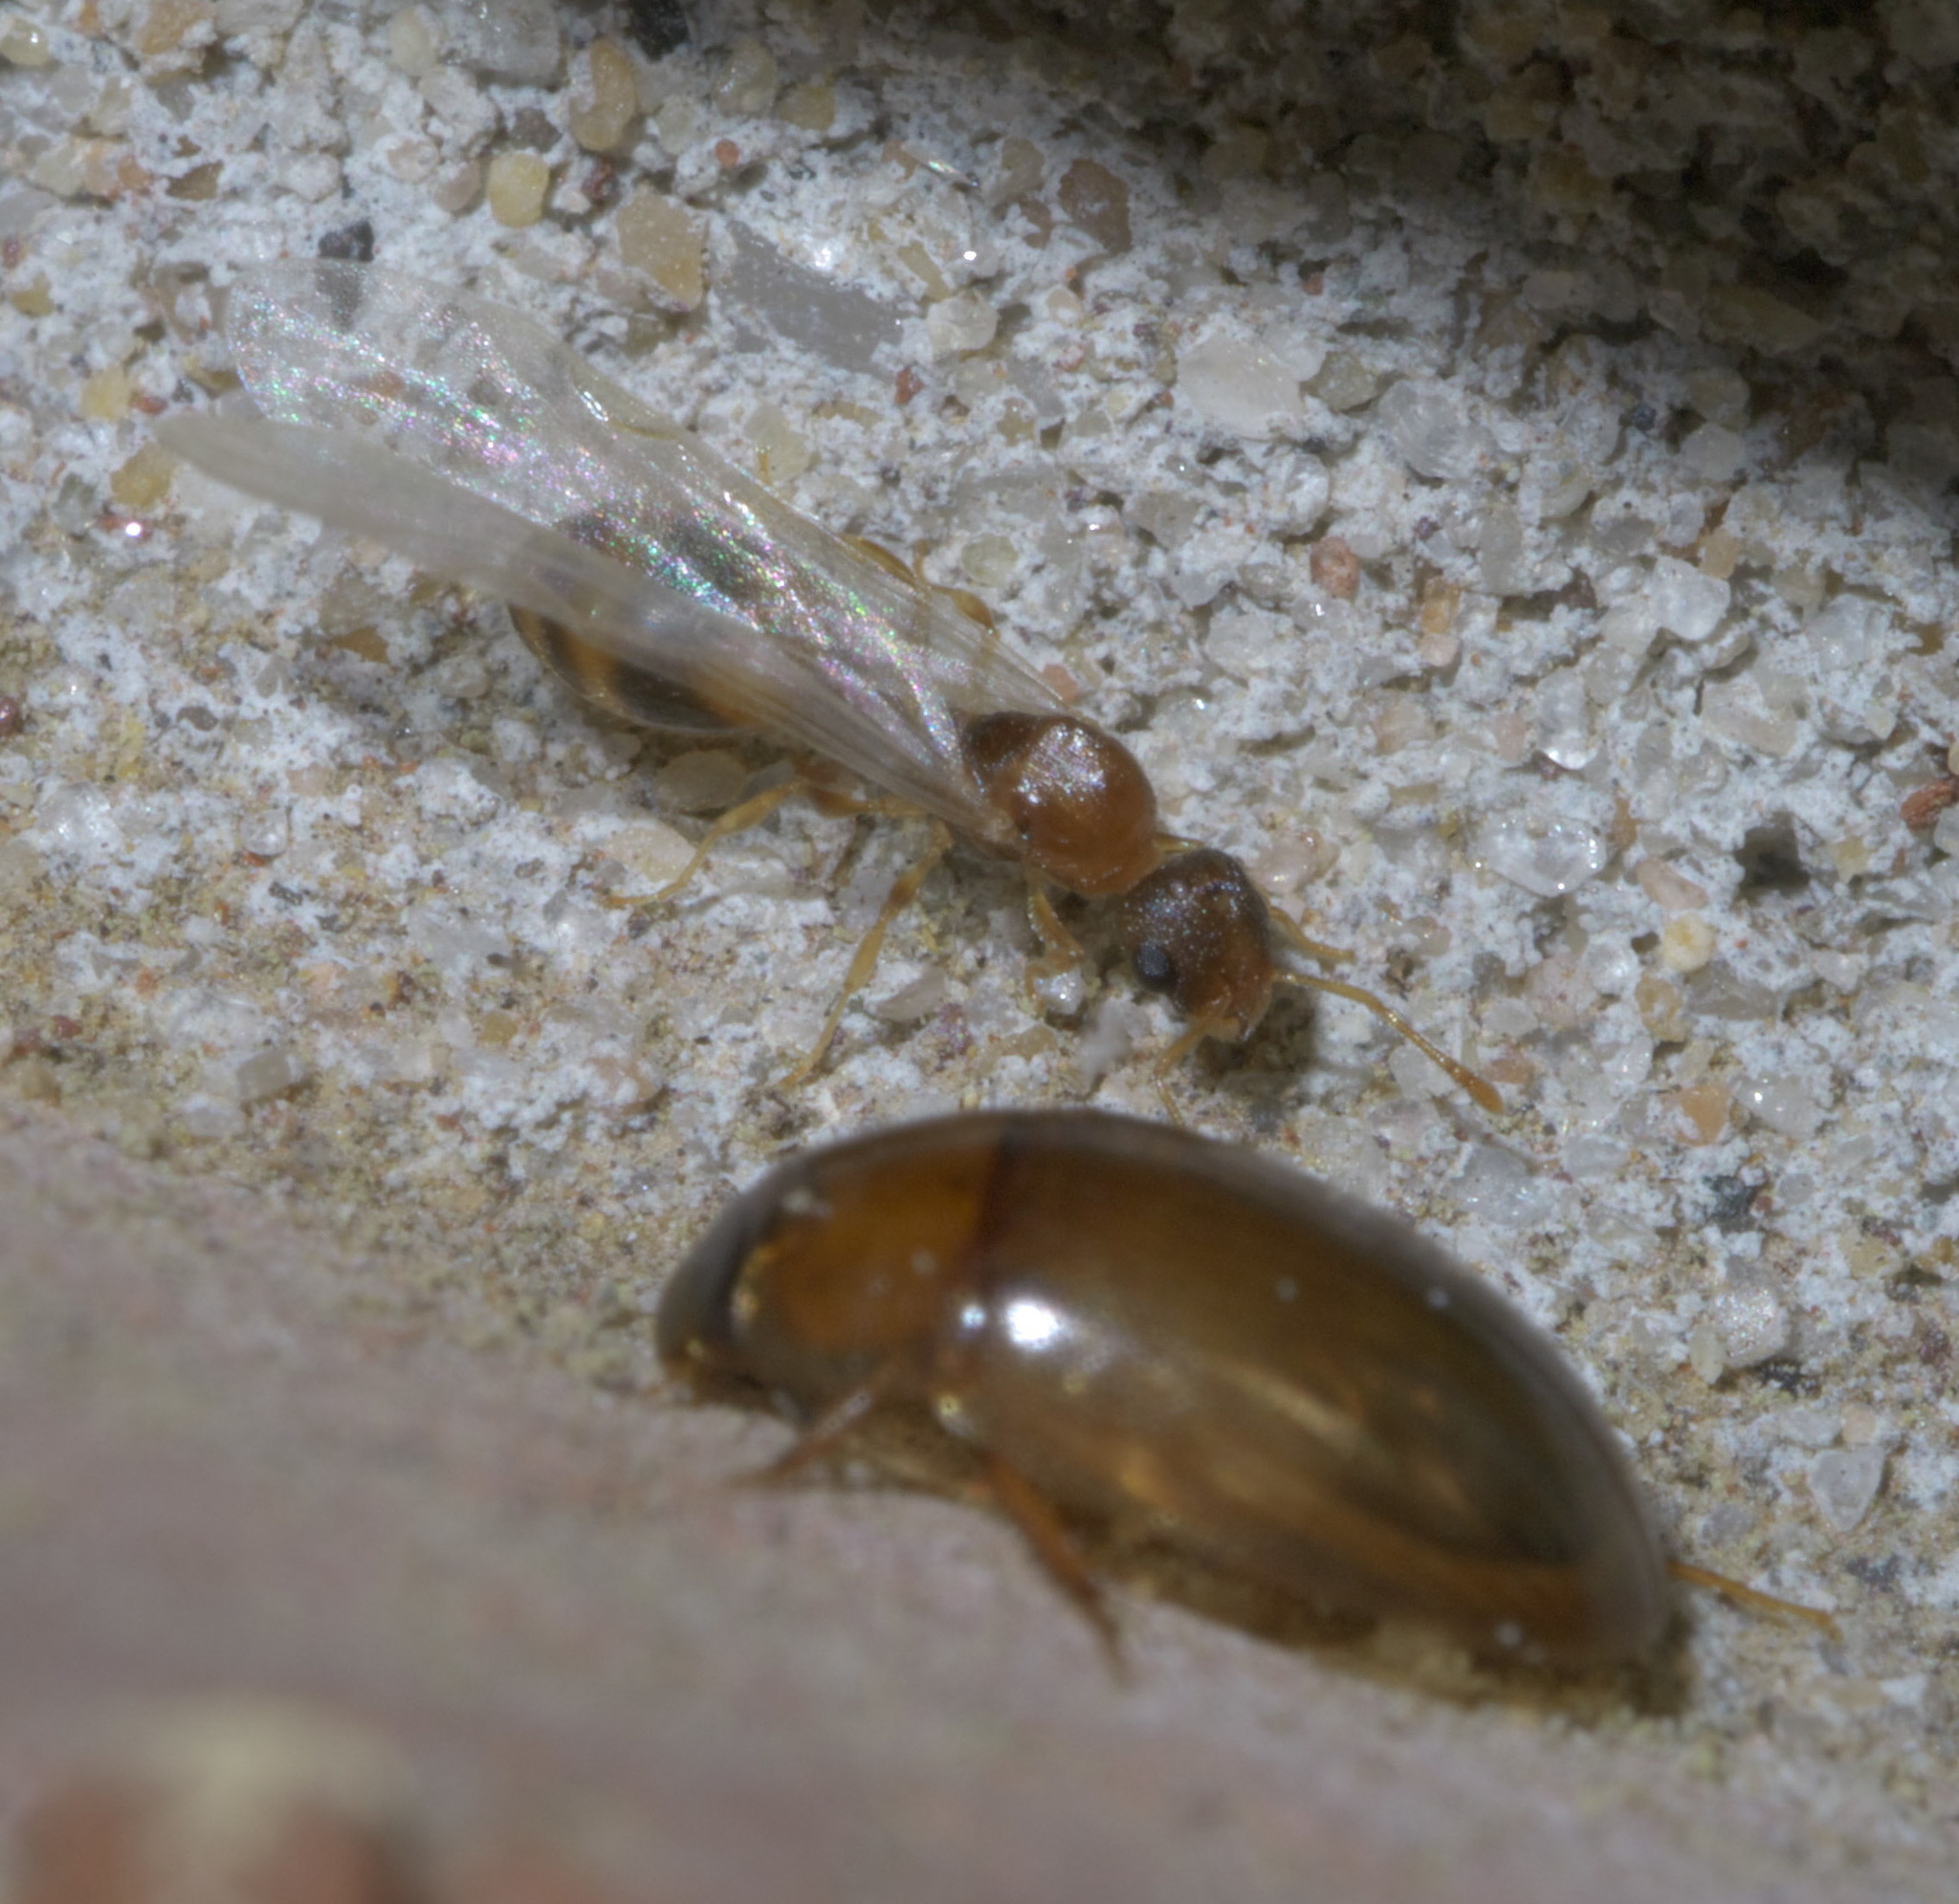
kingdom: Animalia
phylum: Arthropoda
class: Insecta
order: Hymenoptera
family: Formicidae
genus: Temnothorax
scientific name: Temnothorax curvispinosus
